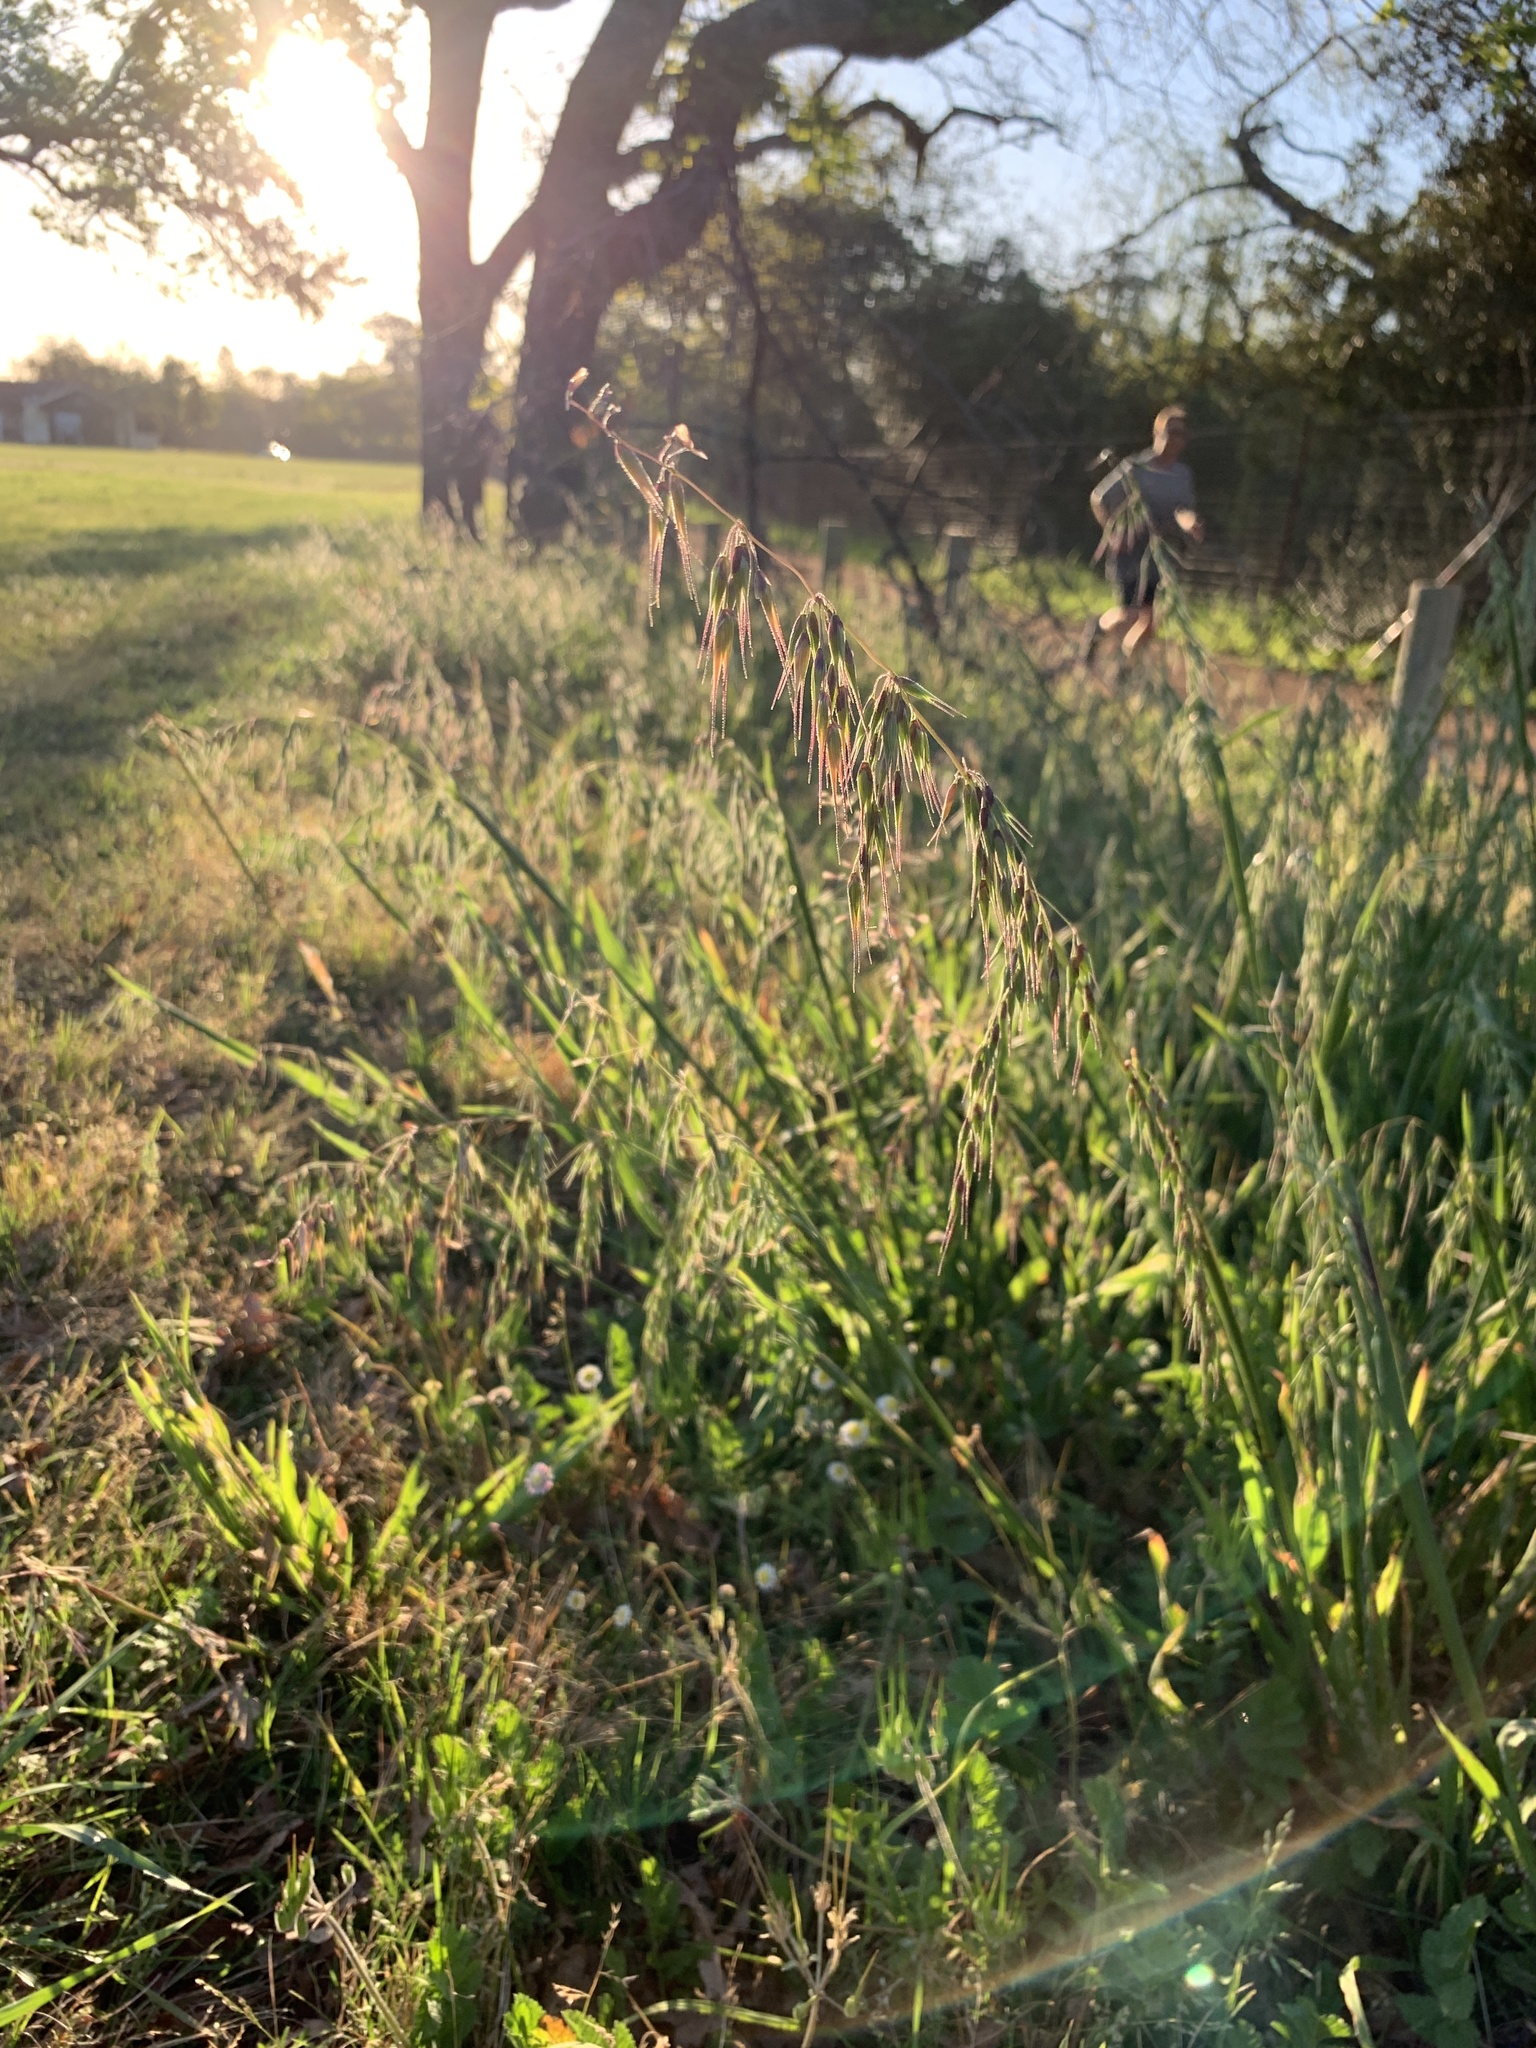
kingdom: Plantae
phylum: Tracheophyta
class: Liliopsida
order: Poales
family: Poaceae
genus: Ehrharta
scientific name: Ehrharta longiflora
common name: Longflowered veldtgrass
